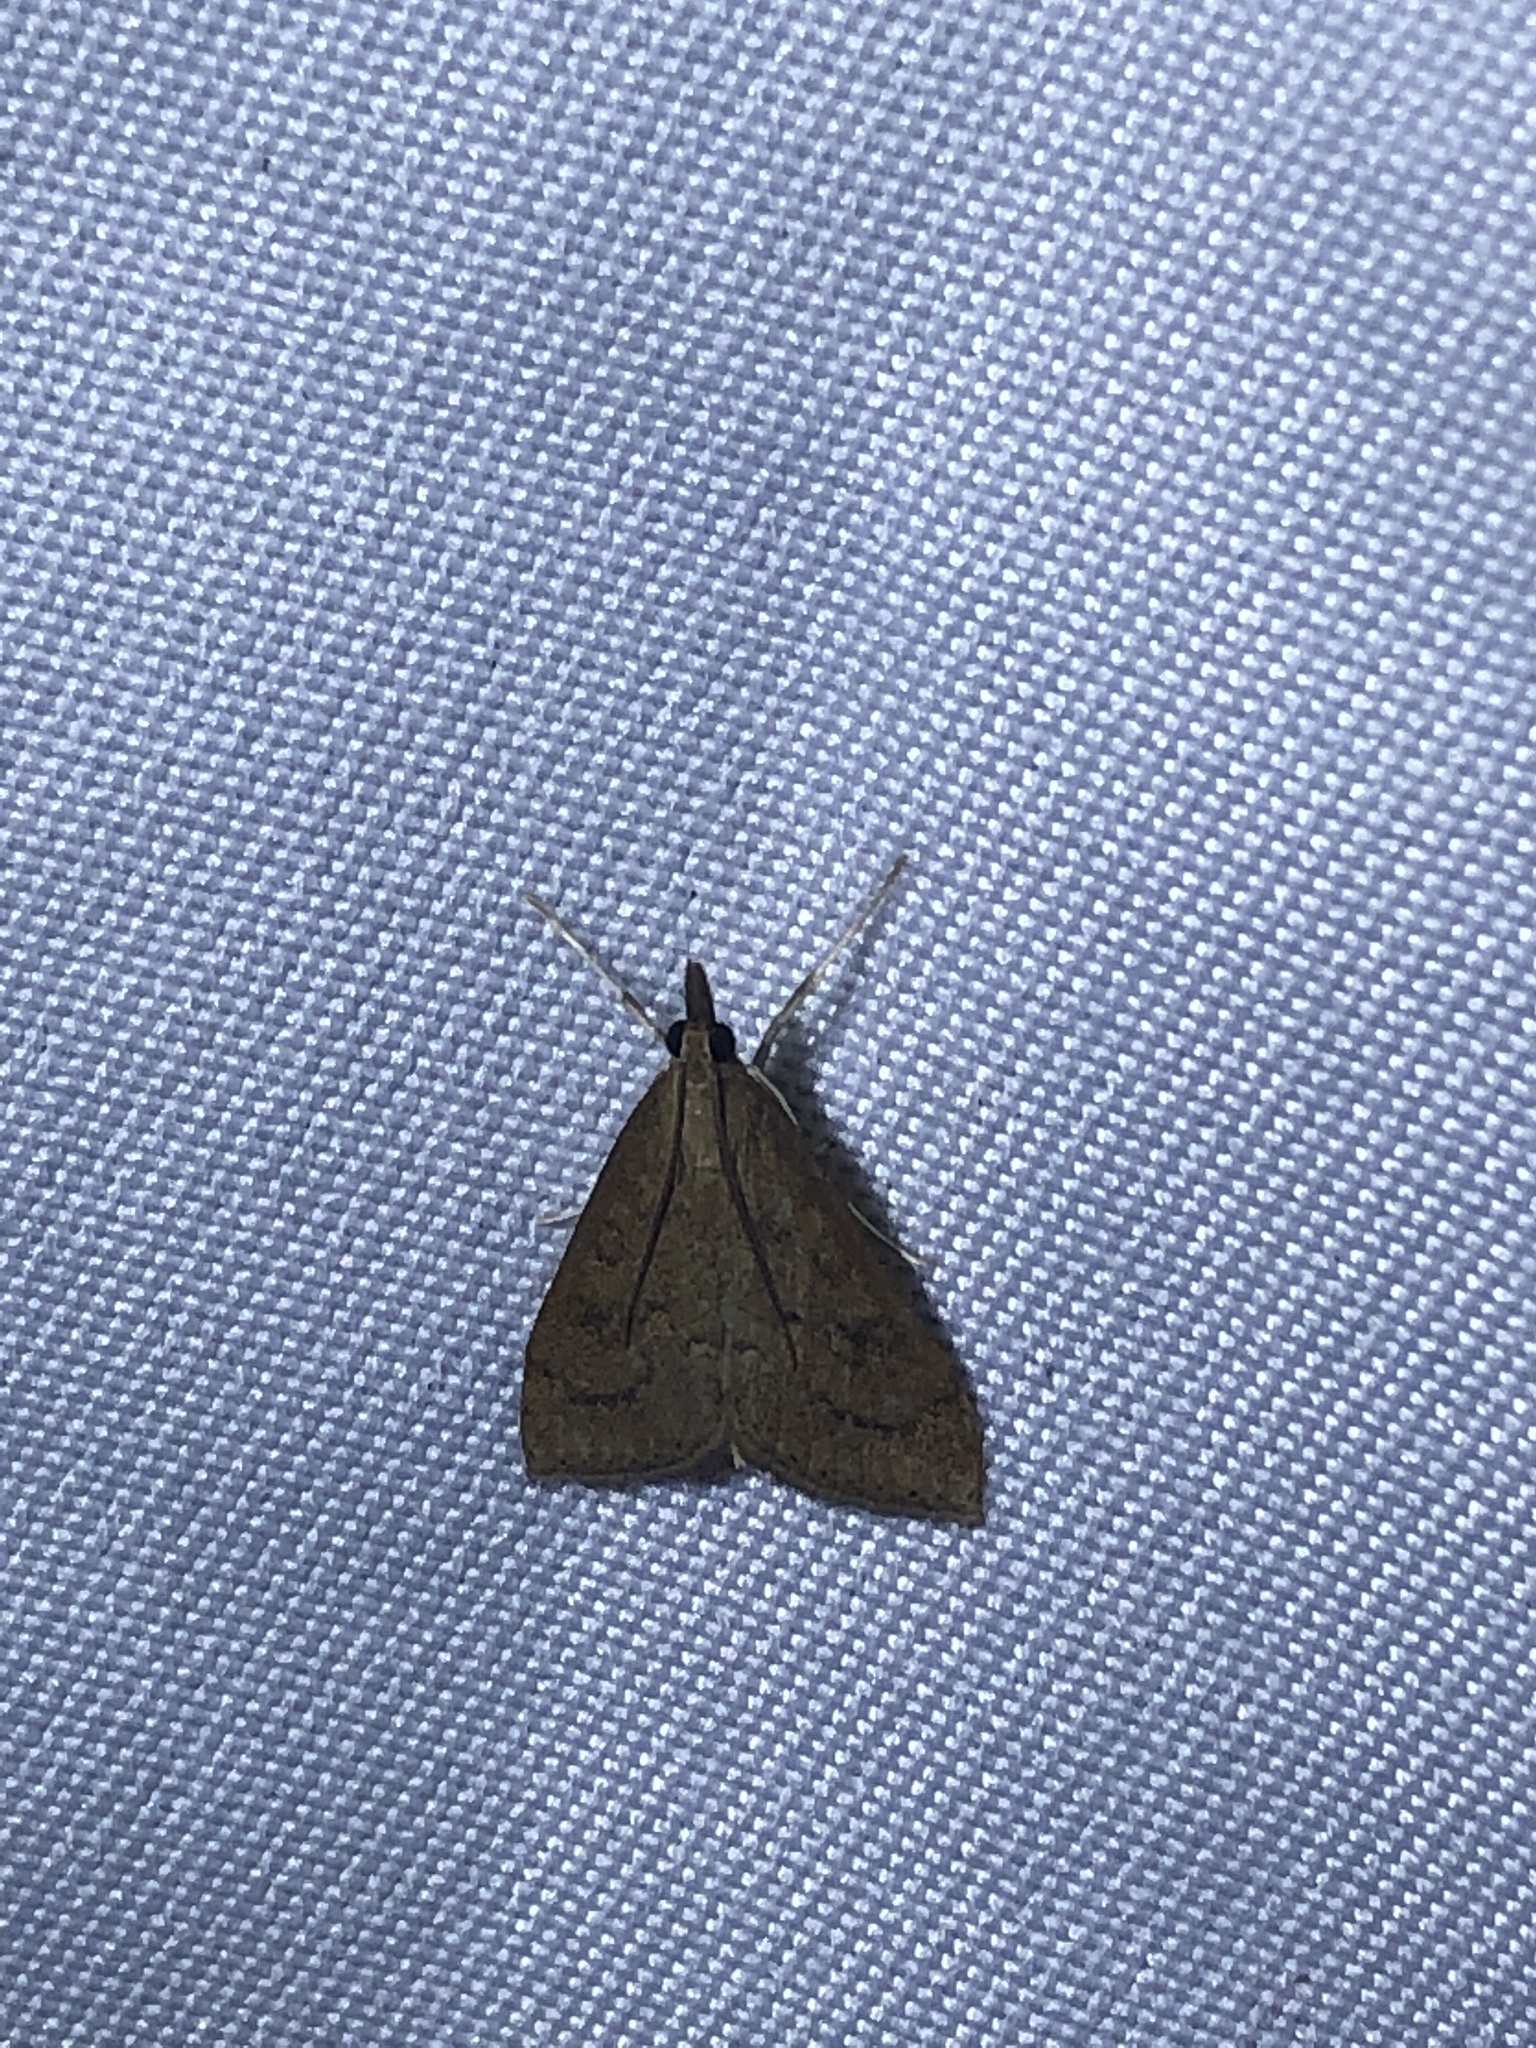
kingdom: Animalia
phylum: Arthropoda
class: Insecta
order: Lepidoptera
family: Crambidae
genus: Udea
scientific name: Udea rubigalis
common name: Celery leaftier moth
